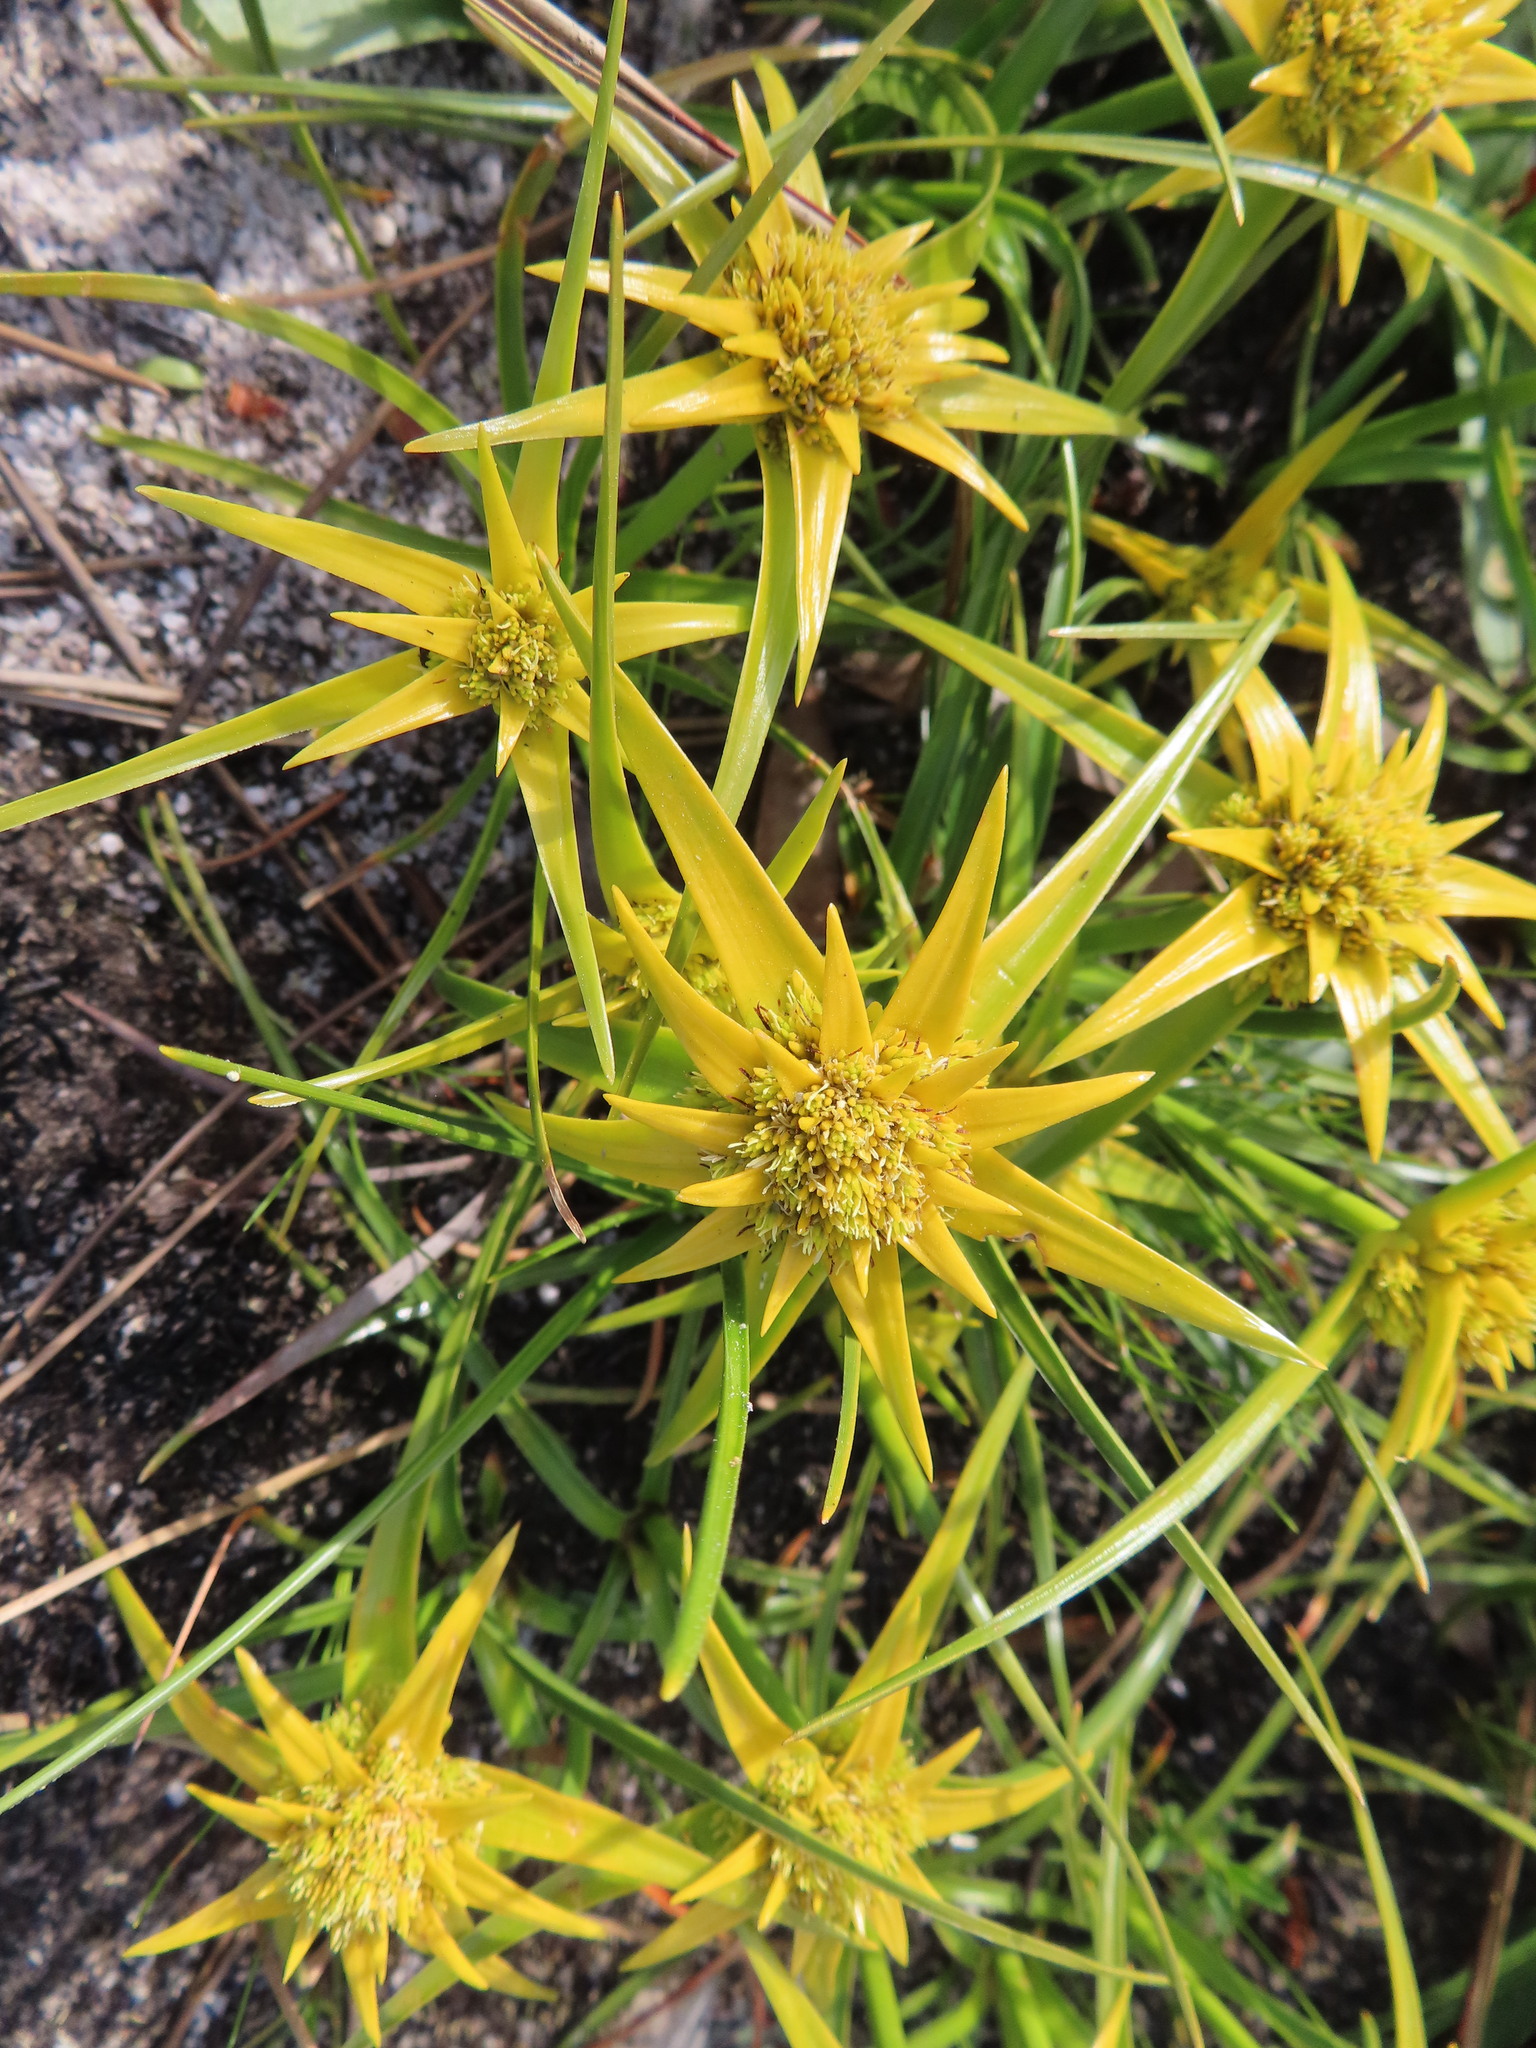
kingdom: Plantae
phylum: Tracheophyta
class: Liliopsida
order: Poales
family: Cyperaceae
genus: Ficinia
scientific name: Ficinia radiata
